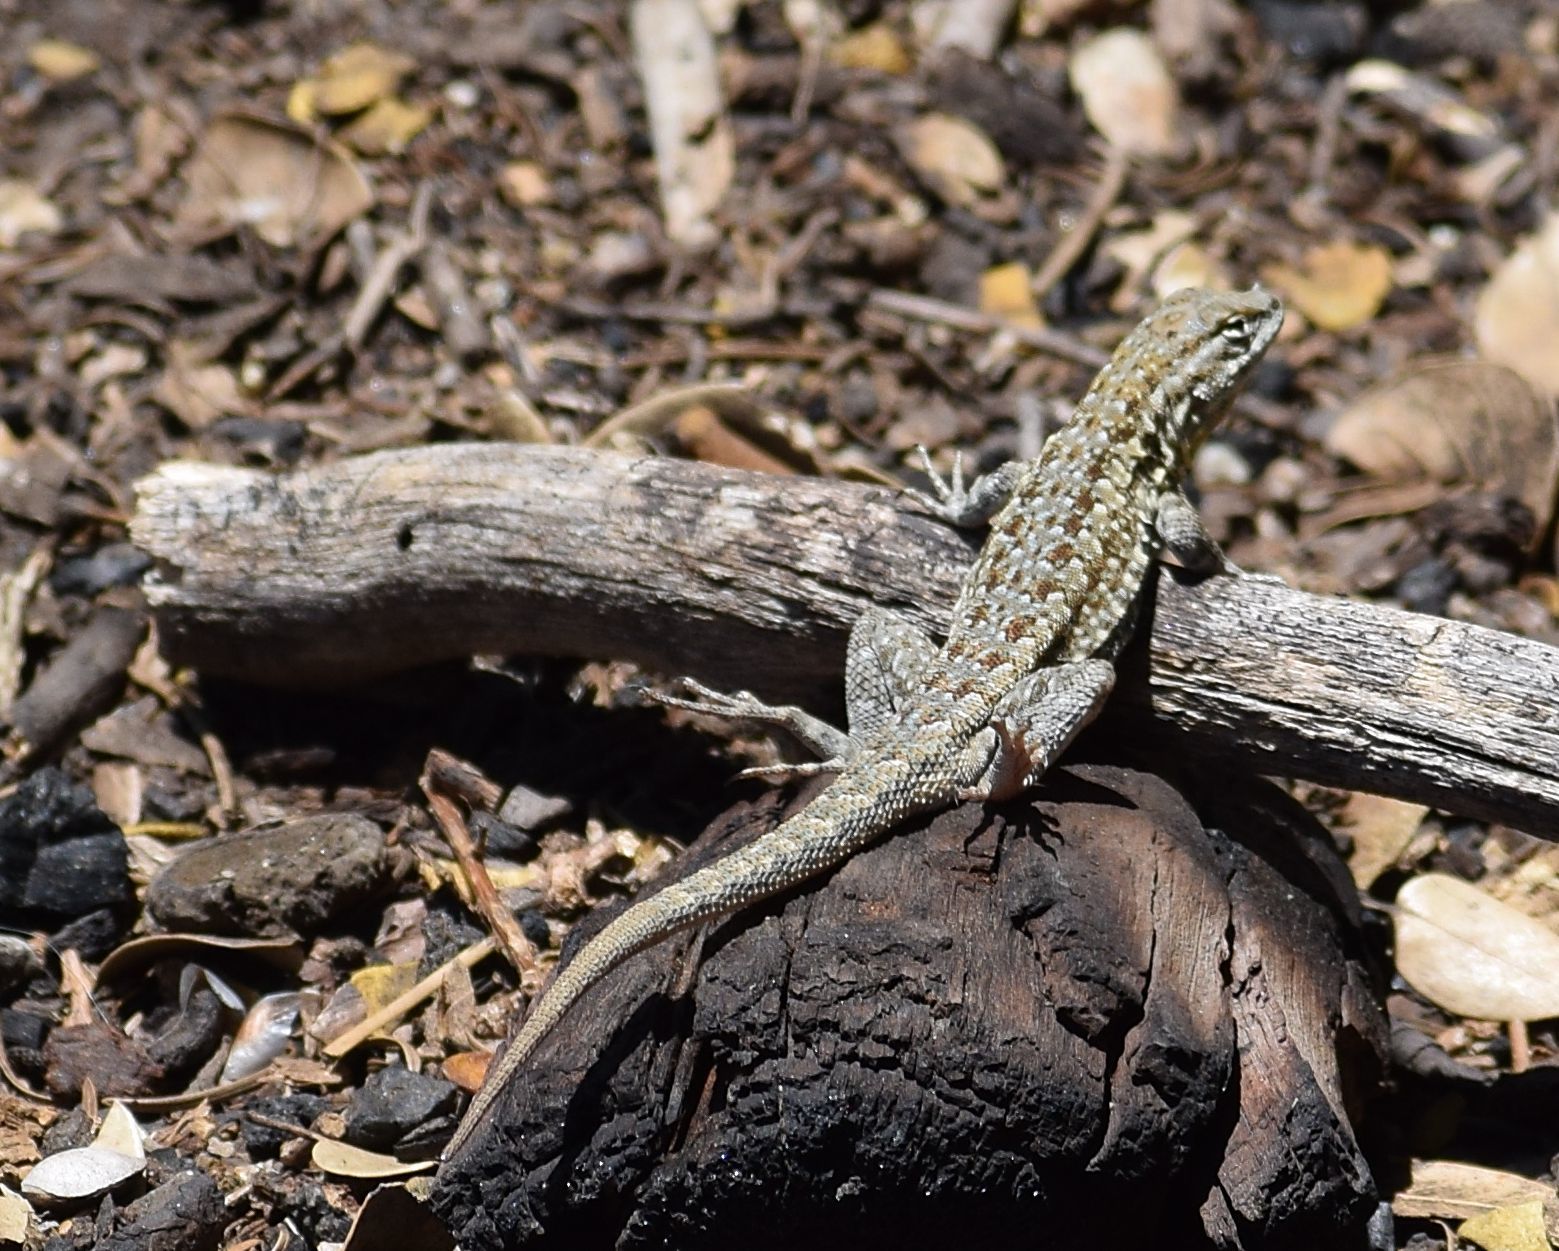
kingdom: Animalia
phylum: Chordata
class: Squamata
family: Phrynosomatidae
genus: Uta
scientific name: Uta stansburiana
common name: Side-blotched lizard
